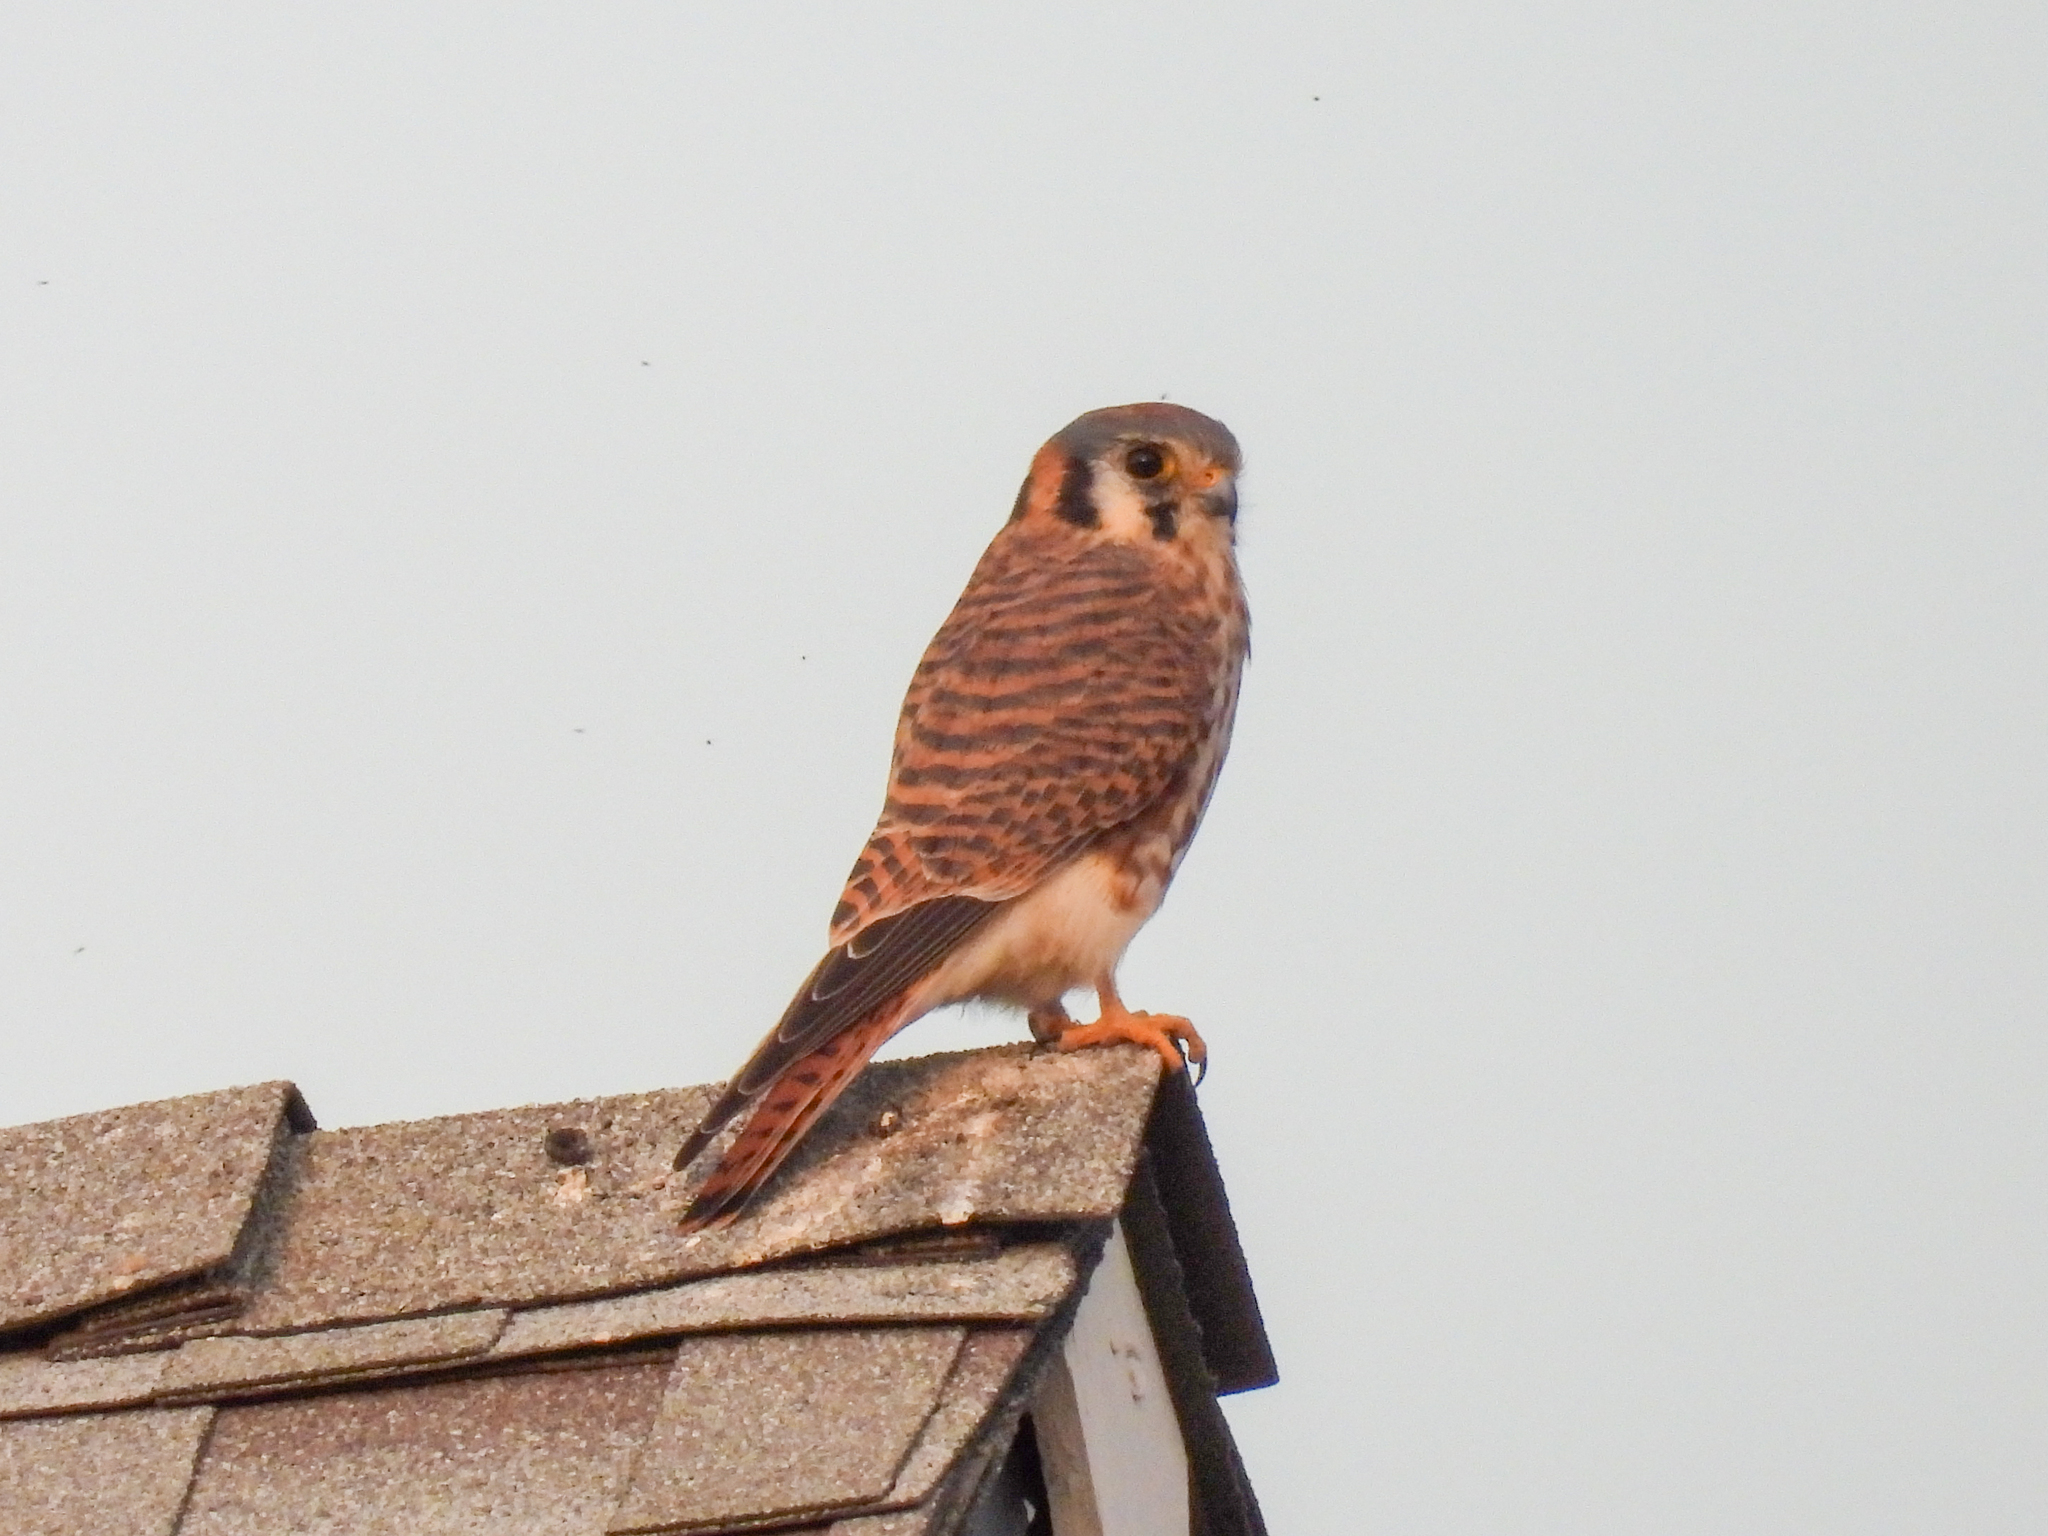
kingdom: Animalia
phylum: Chordata
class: Aves
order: Falconiformes
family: Falconidae
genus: Falco
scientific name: Falco sparverius
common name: American kestrel
